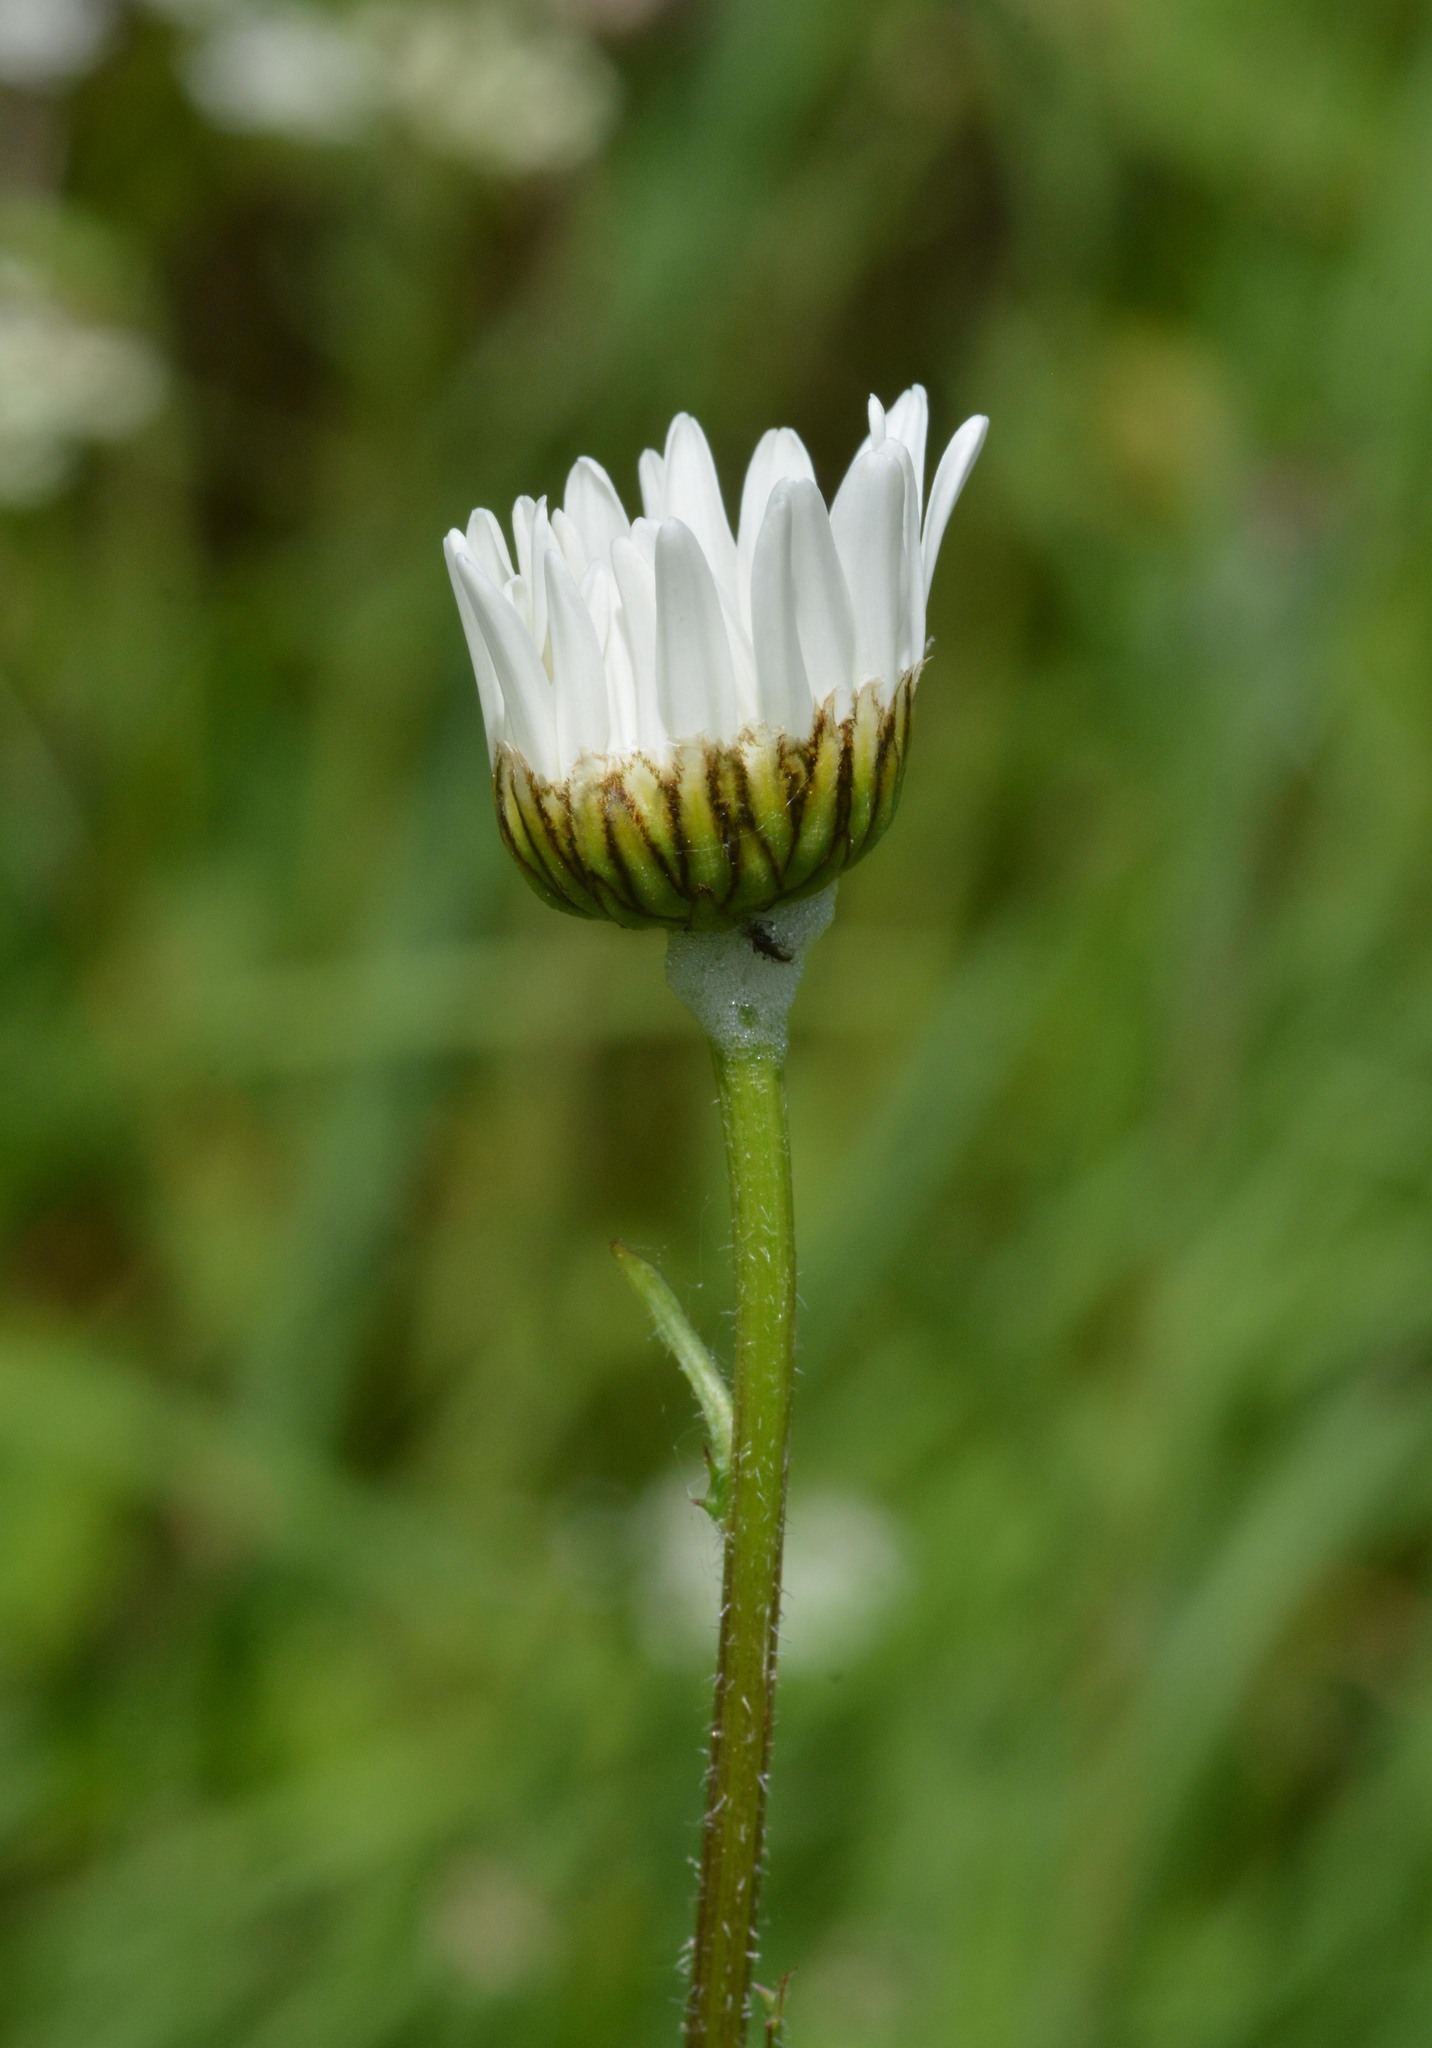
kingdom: Plantae
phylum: Tracheophyta
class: Magnoliopsida
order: Asterales
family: Asteraceae
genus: Leucanthemum
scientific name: Leucanthemum vulgare
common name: Oxeye daisy
